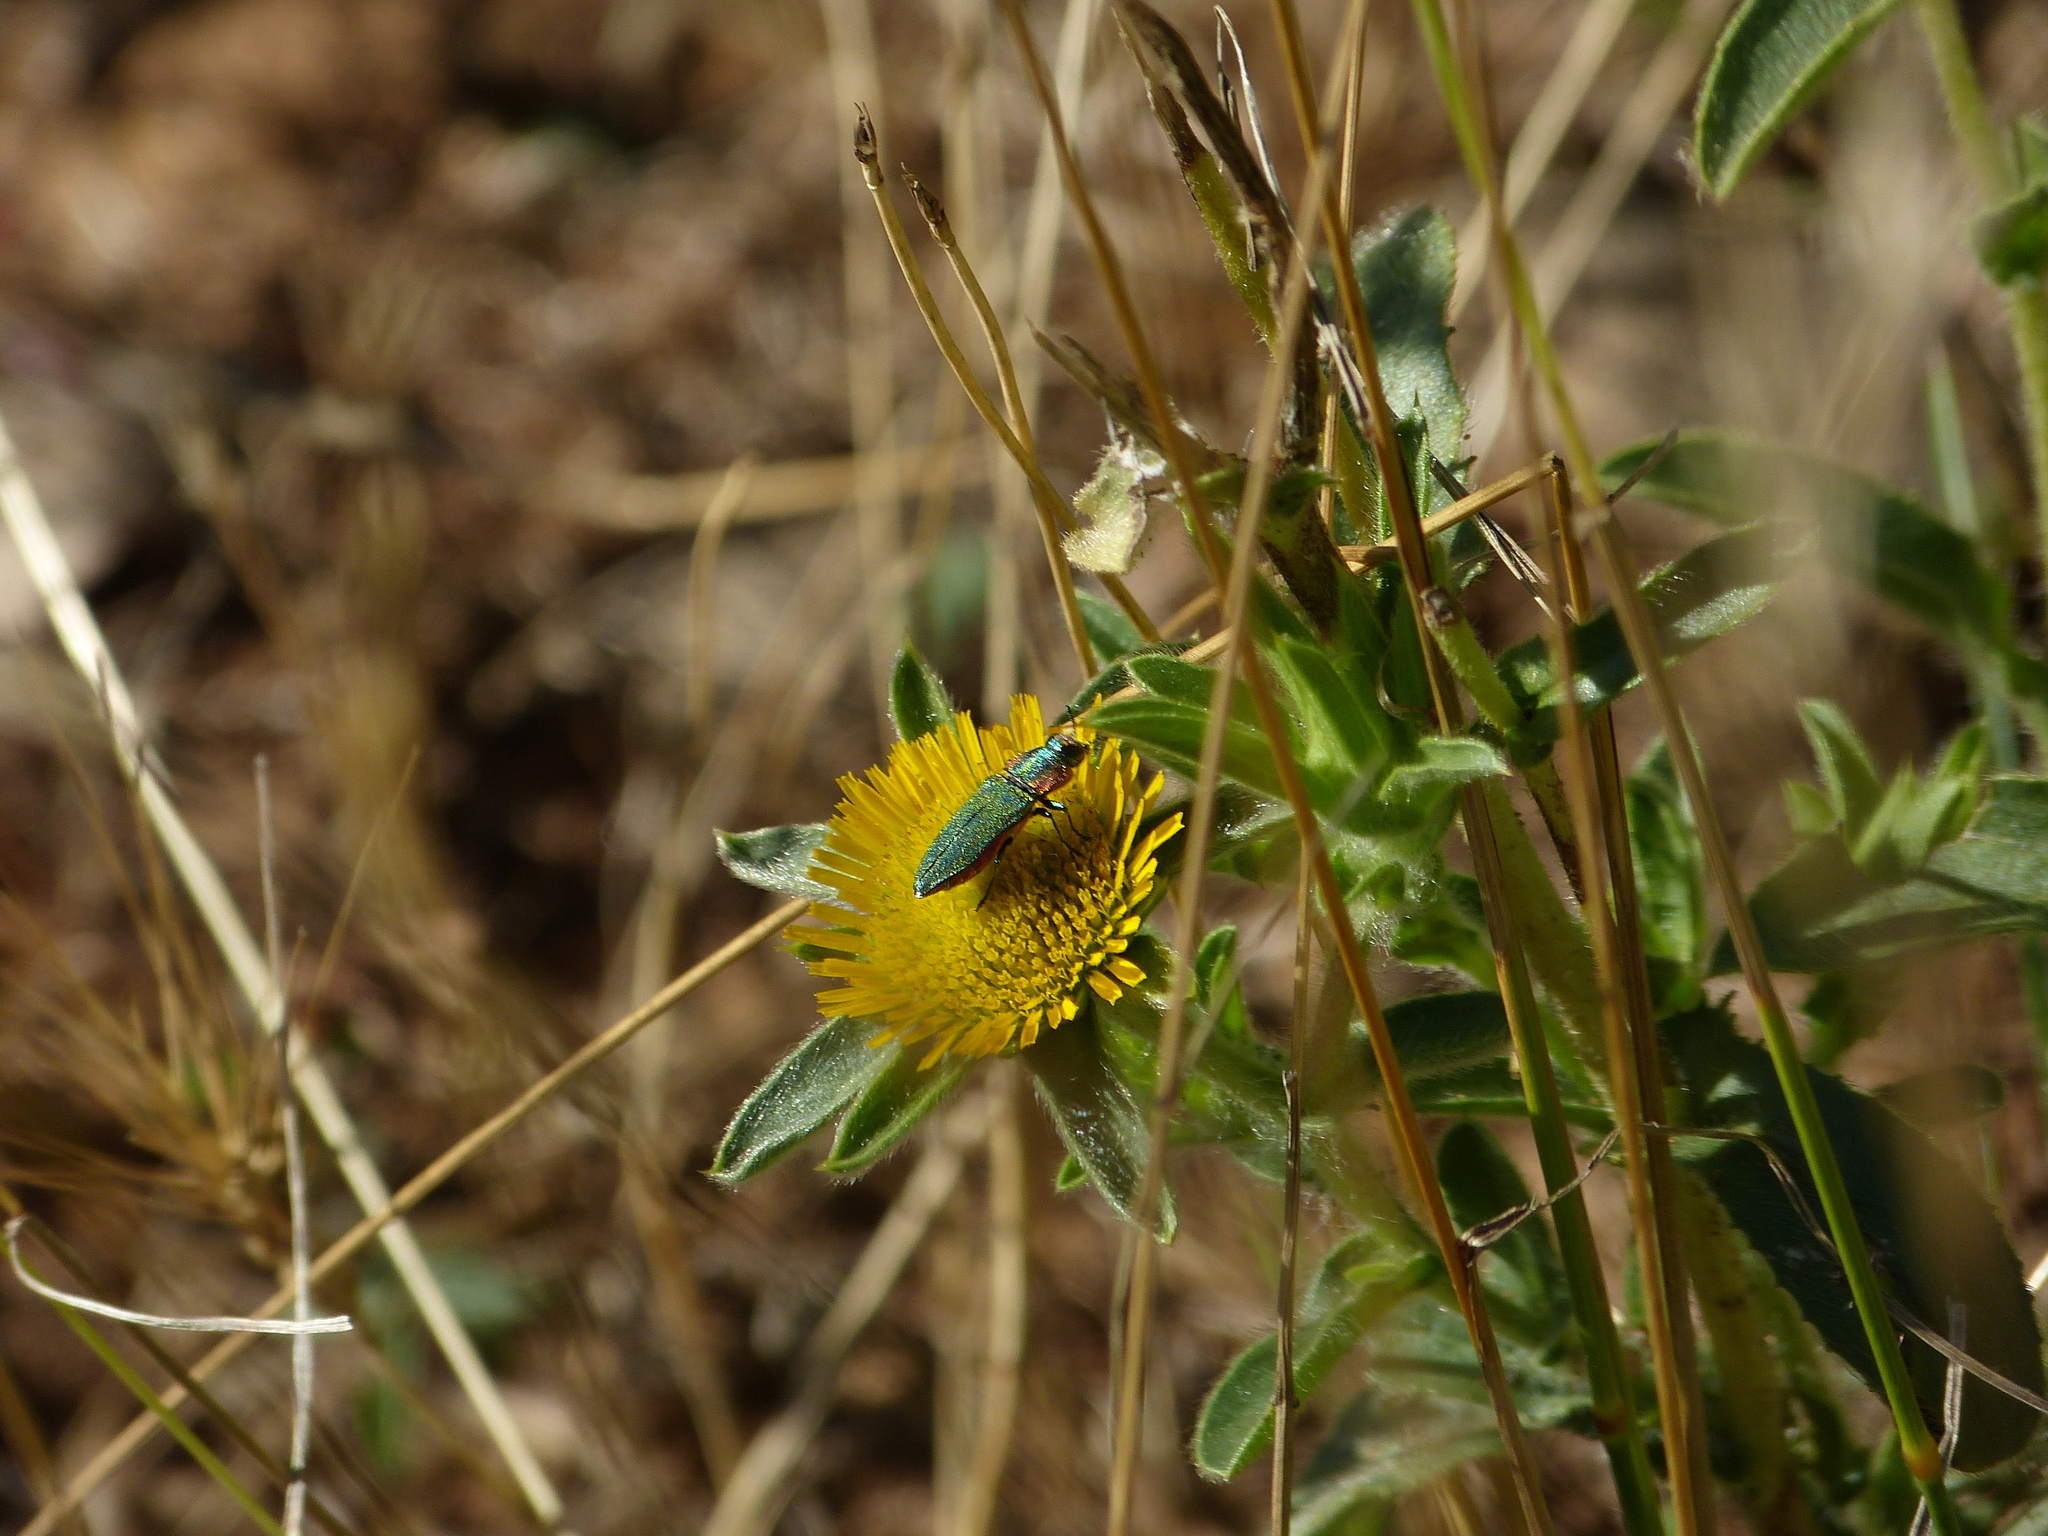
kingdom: Animalia
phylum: Arthropoda
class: Insecta
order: Coleoptera
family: Buprestidae
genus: Anthaxia
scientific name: Anthaxia hungarica
